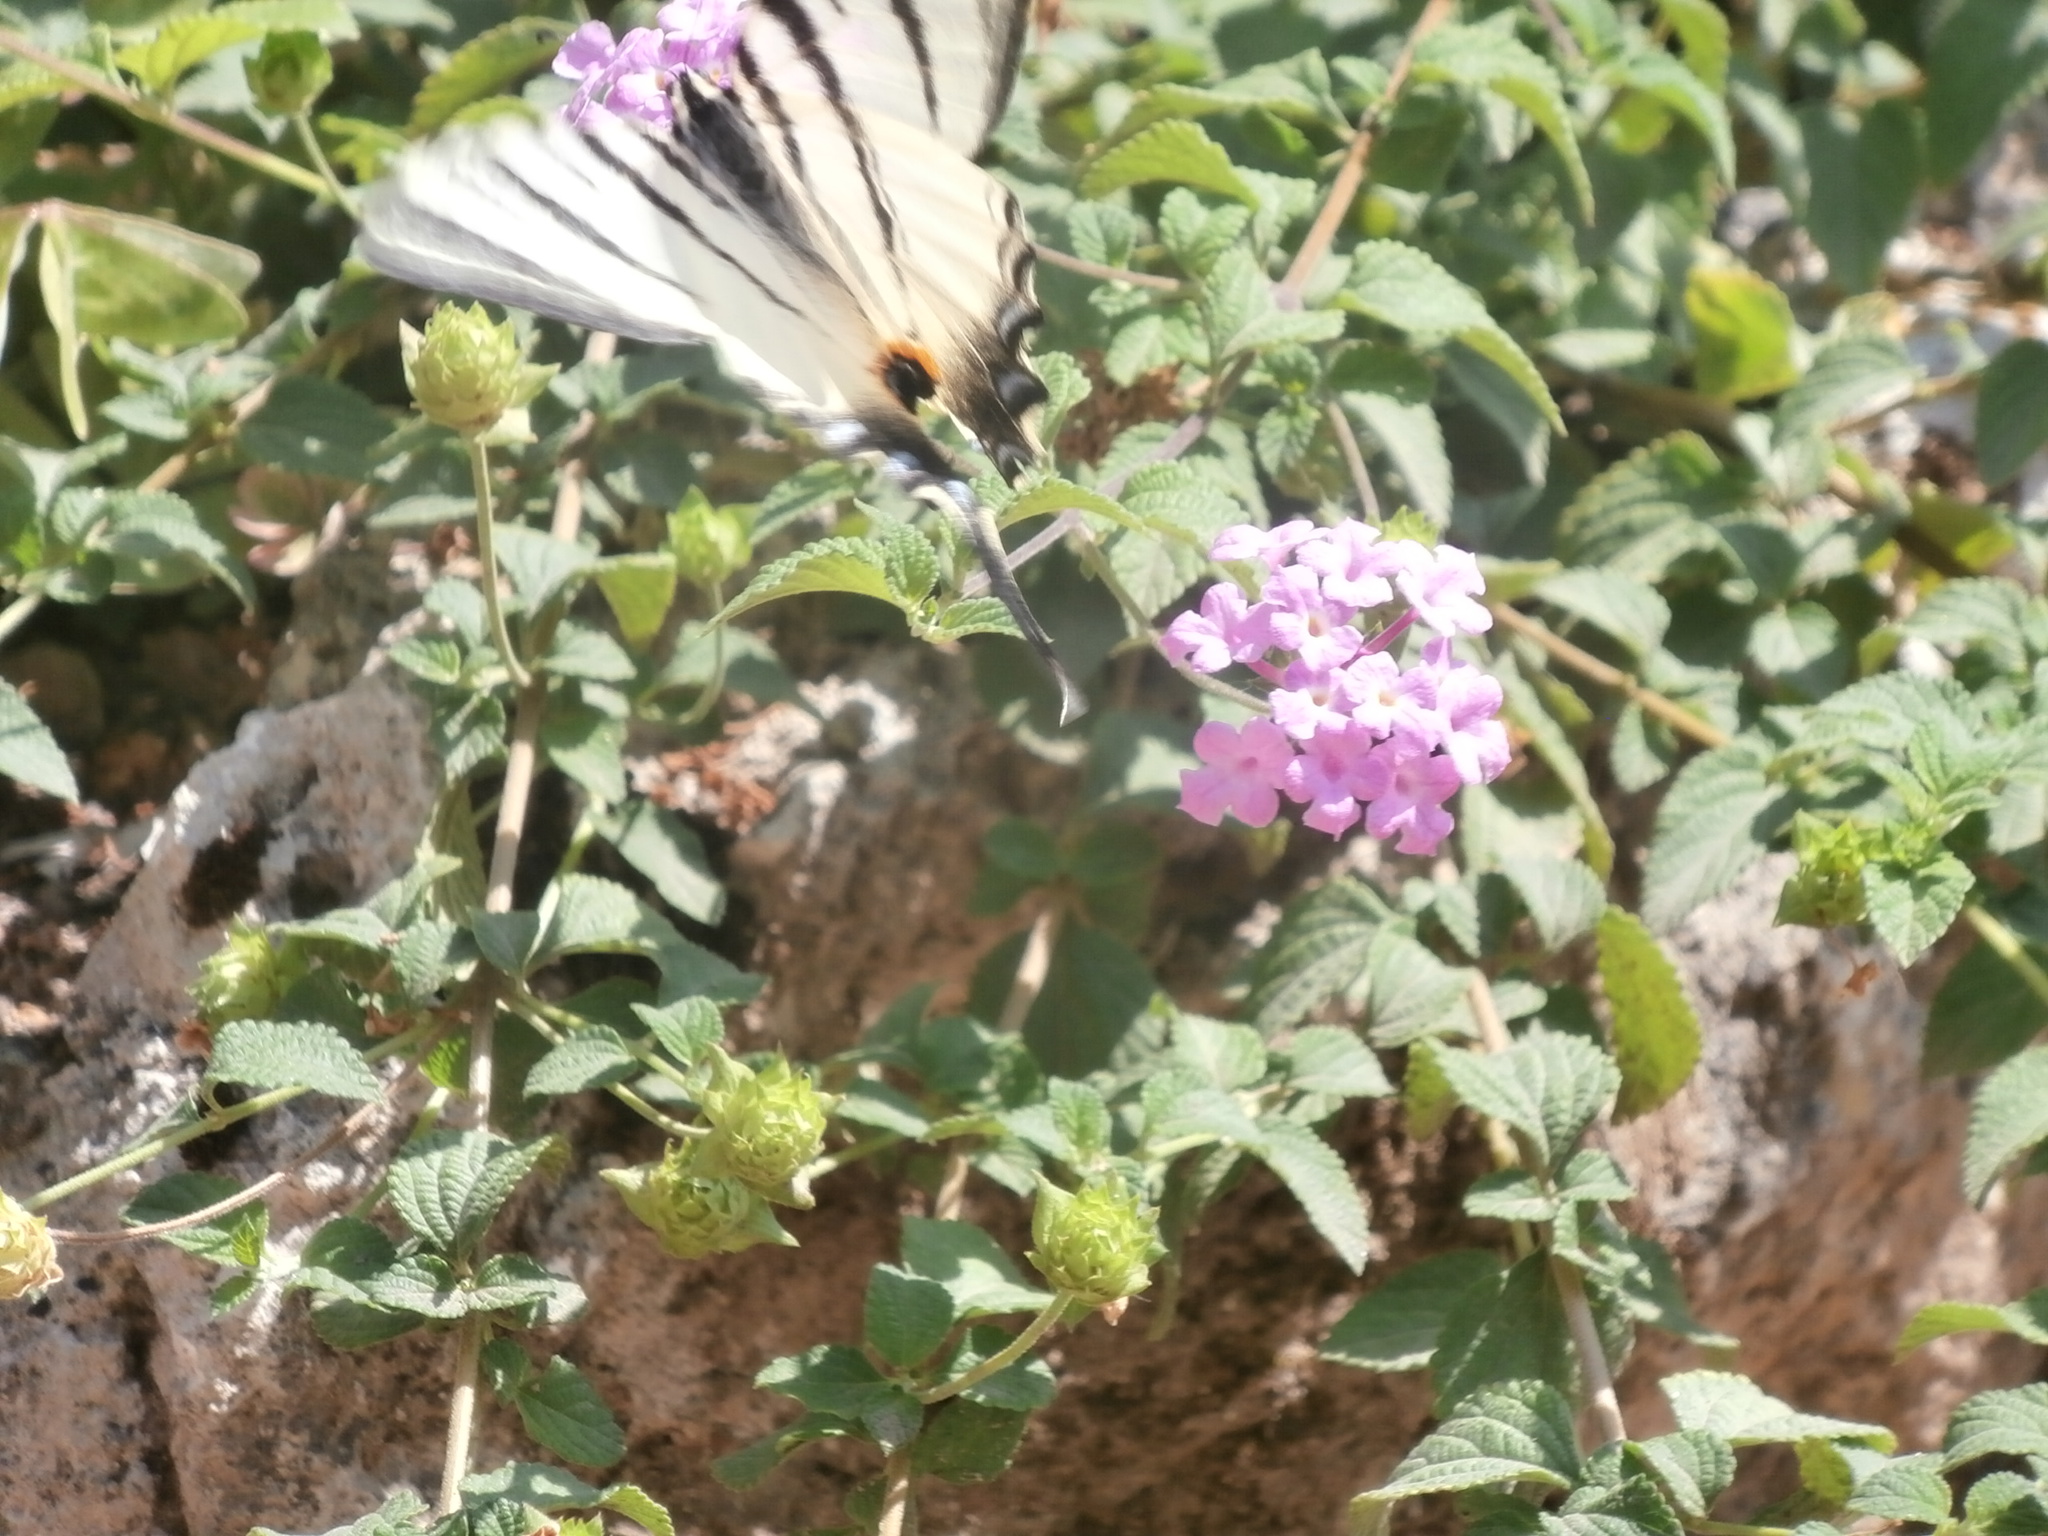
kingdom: Animalia
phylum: Arthropoda
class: Insecta
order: Lepidoptera
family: Papilionidae
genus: Iphiclides
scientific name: Iphiclides podalirius
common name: Scarce swallowtail
